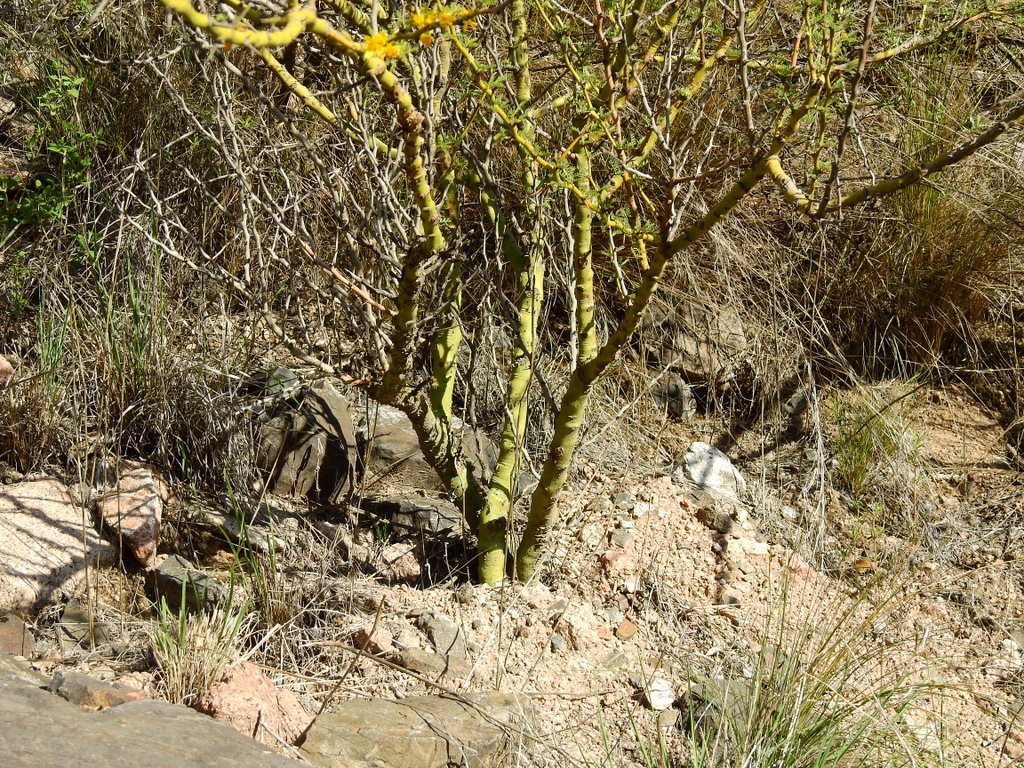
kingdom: Plantae
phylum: Tracheophyta
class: Magnoliopsida
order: Fabales
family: Fabaceae
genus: Parkinsonia
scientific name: Parkinsonia praecox
